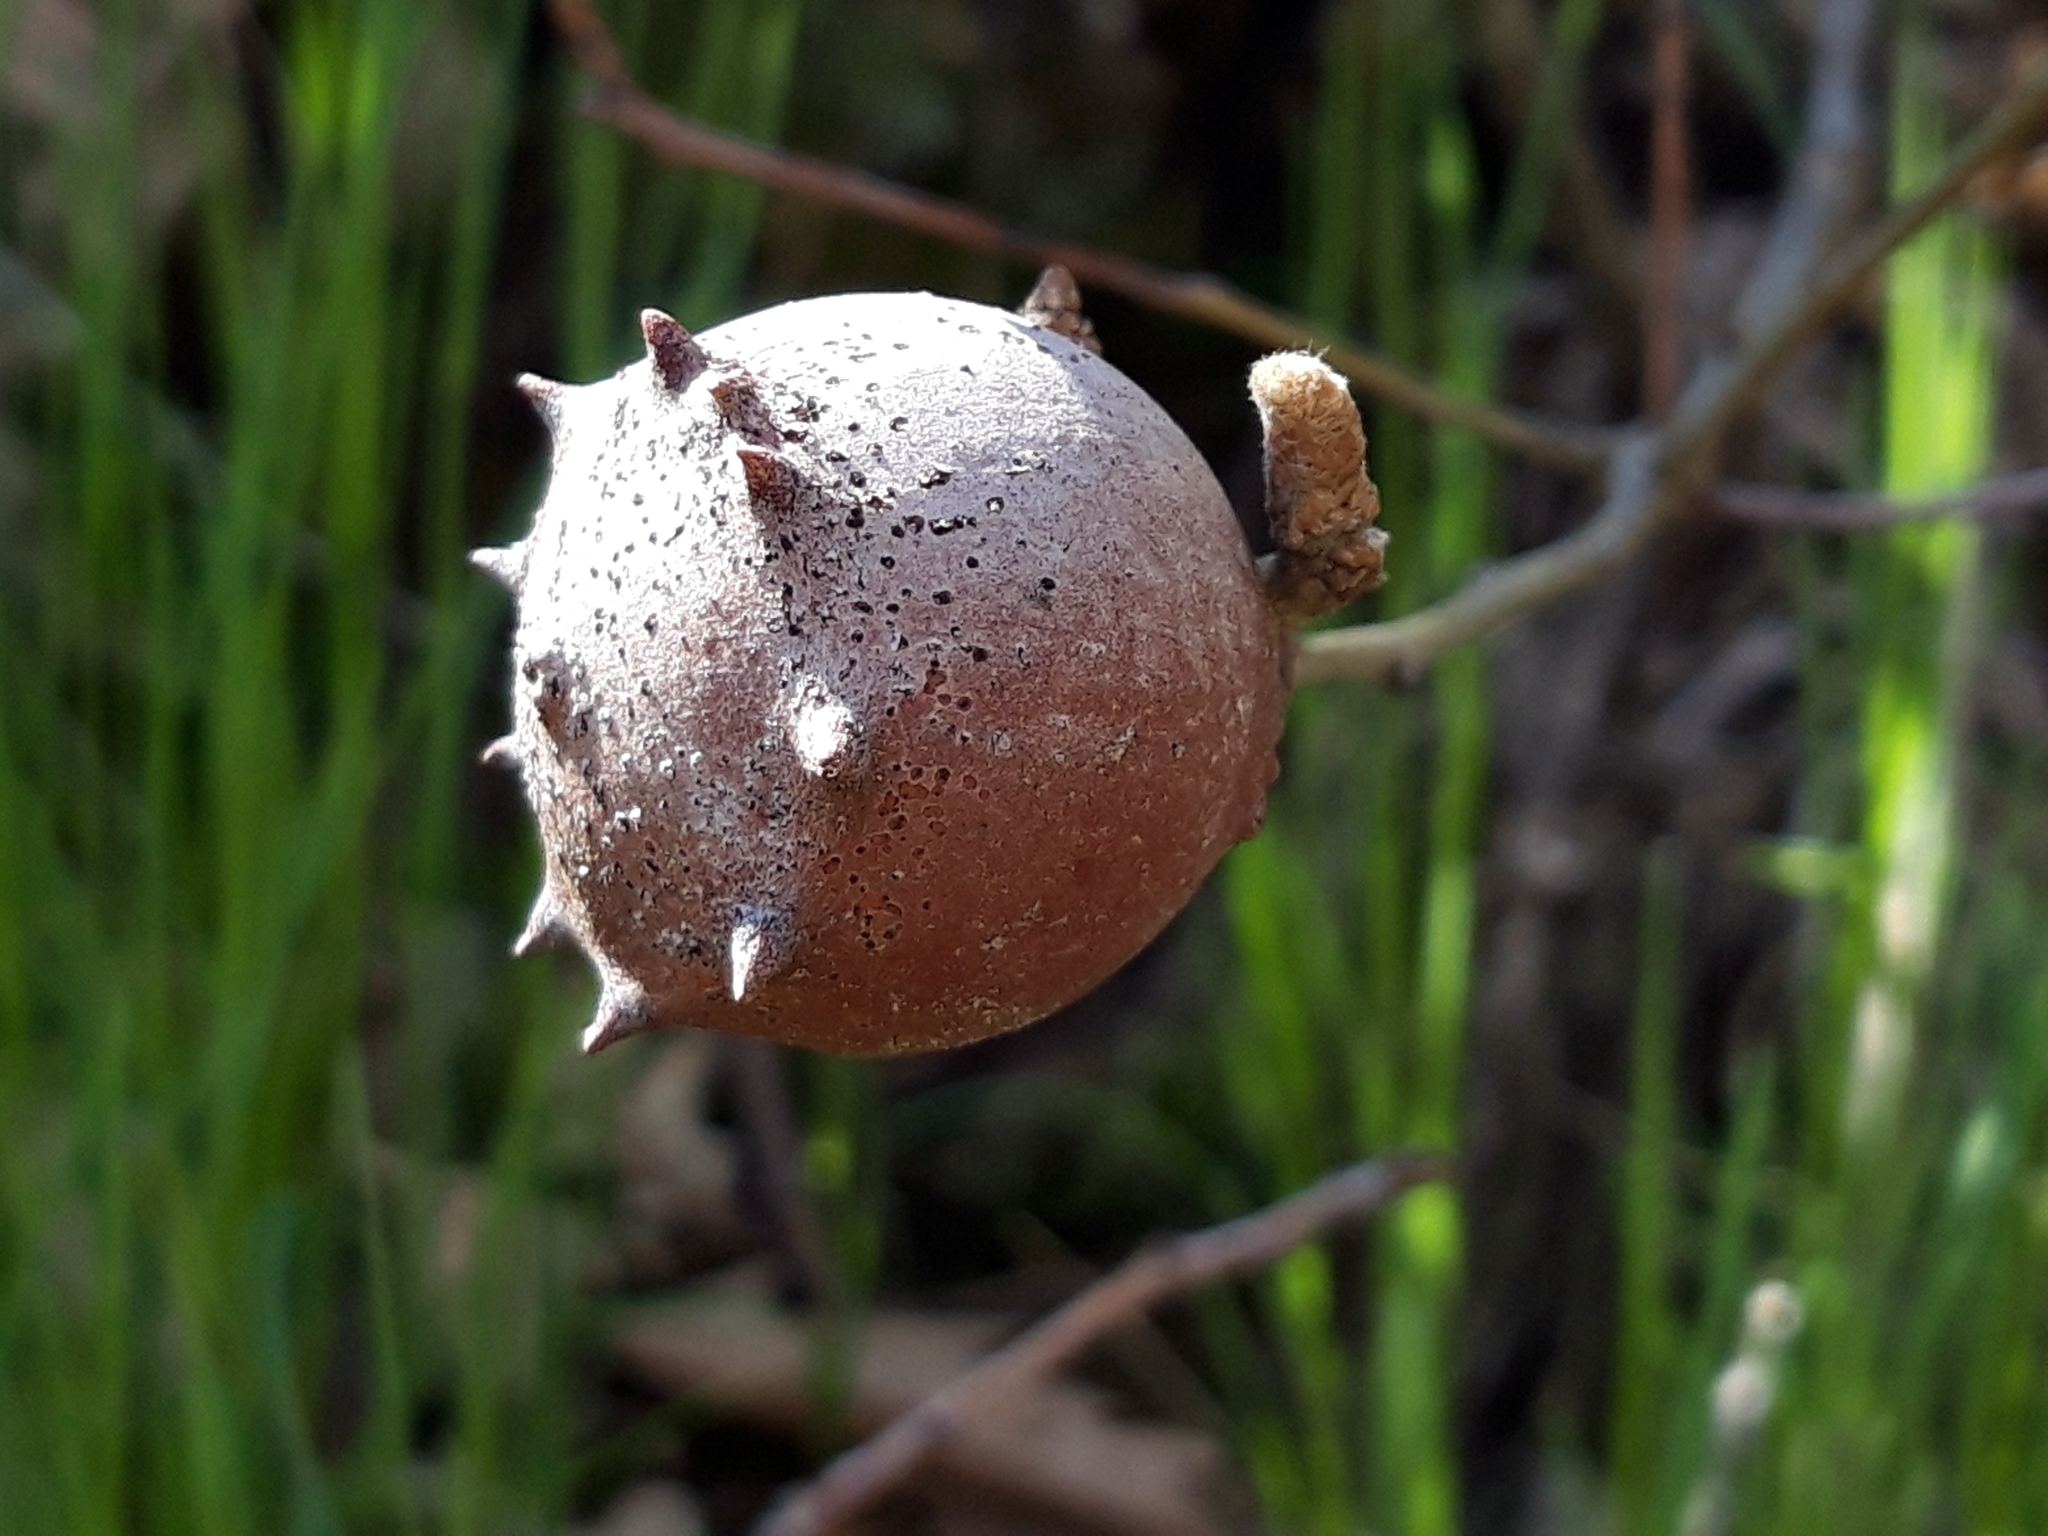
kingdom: Animalia
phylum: Arthropoda
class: Insecta
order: Hymenoptera
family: Cynipidae
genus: Andricus
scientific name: Andricus quercustozae
